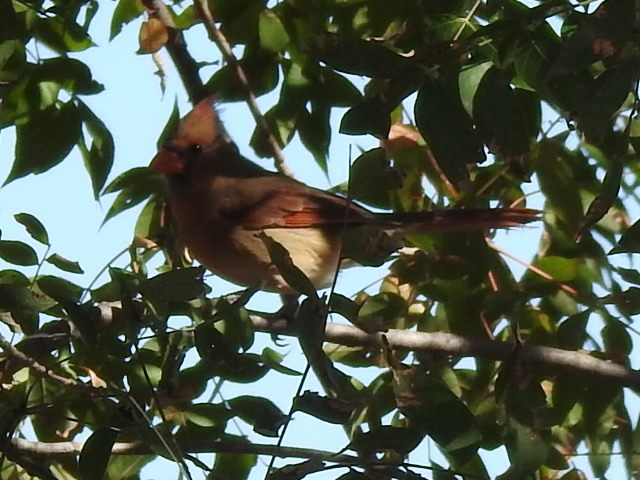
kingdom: Animalia
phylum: Chordata
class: Aves
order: Passeriformes
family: Cardinalidae
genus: Cardinalis
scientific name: Cardinalis cardinalis
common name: Northern cardinal
